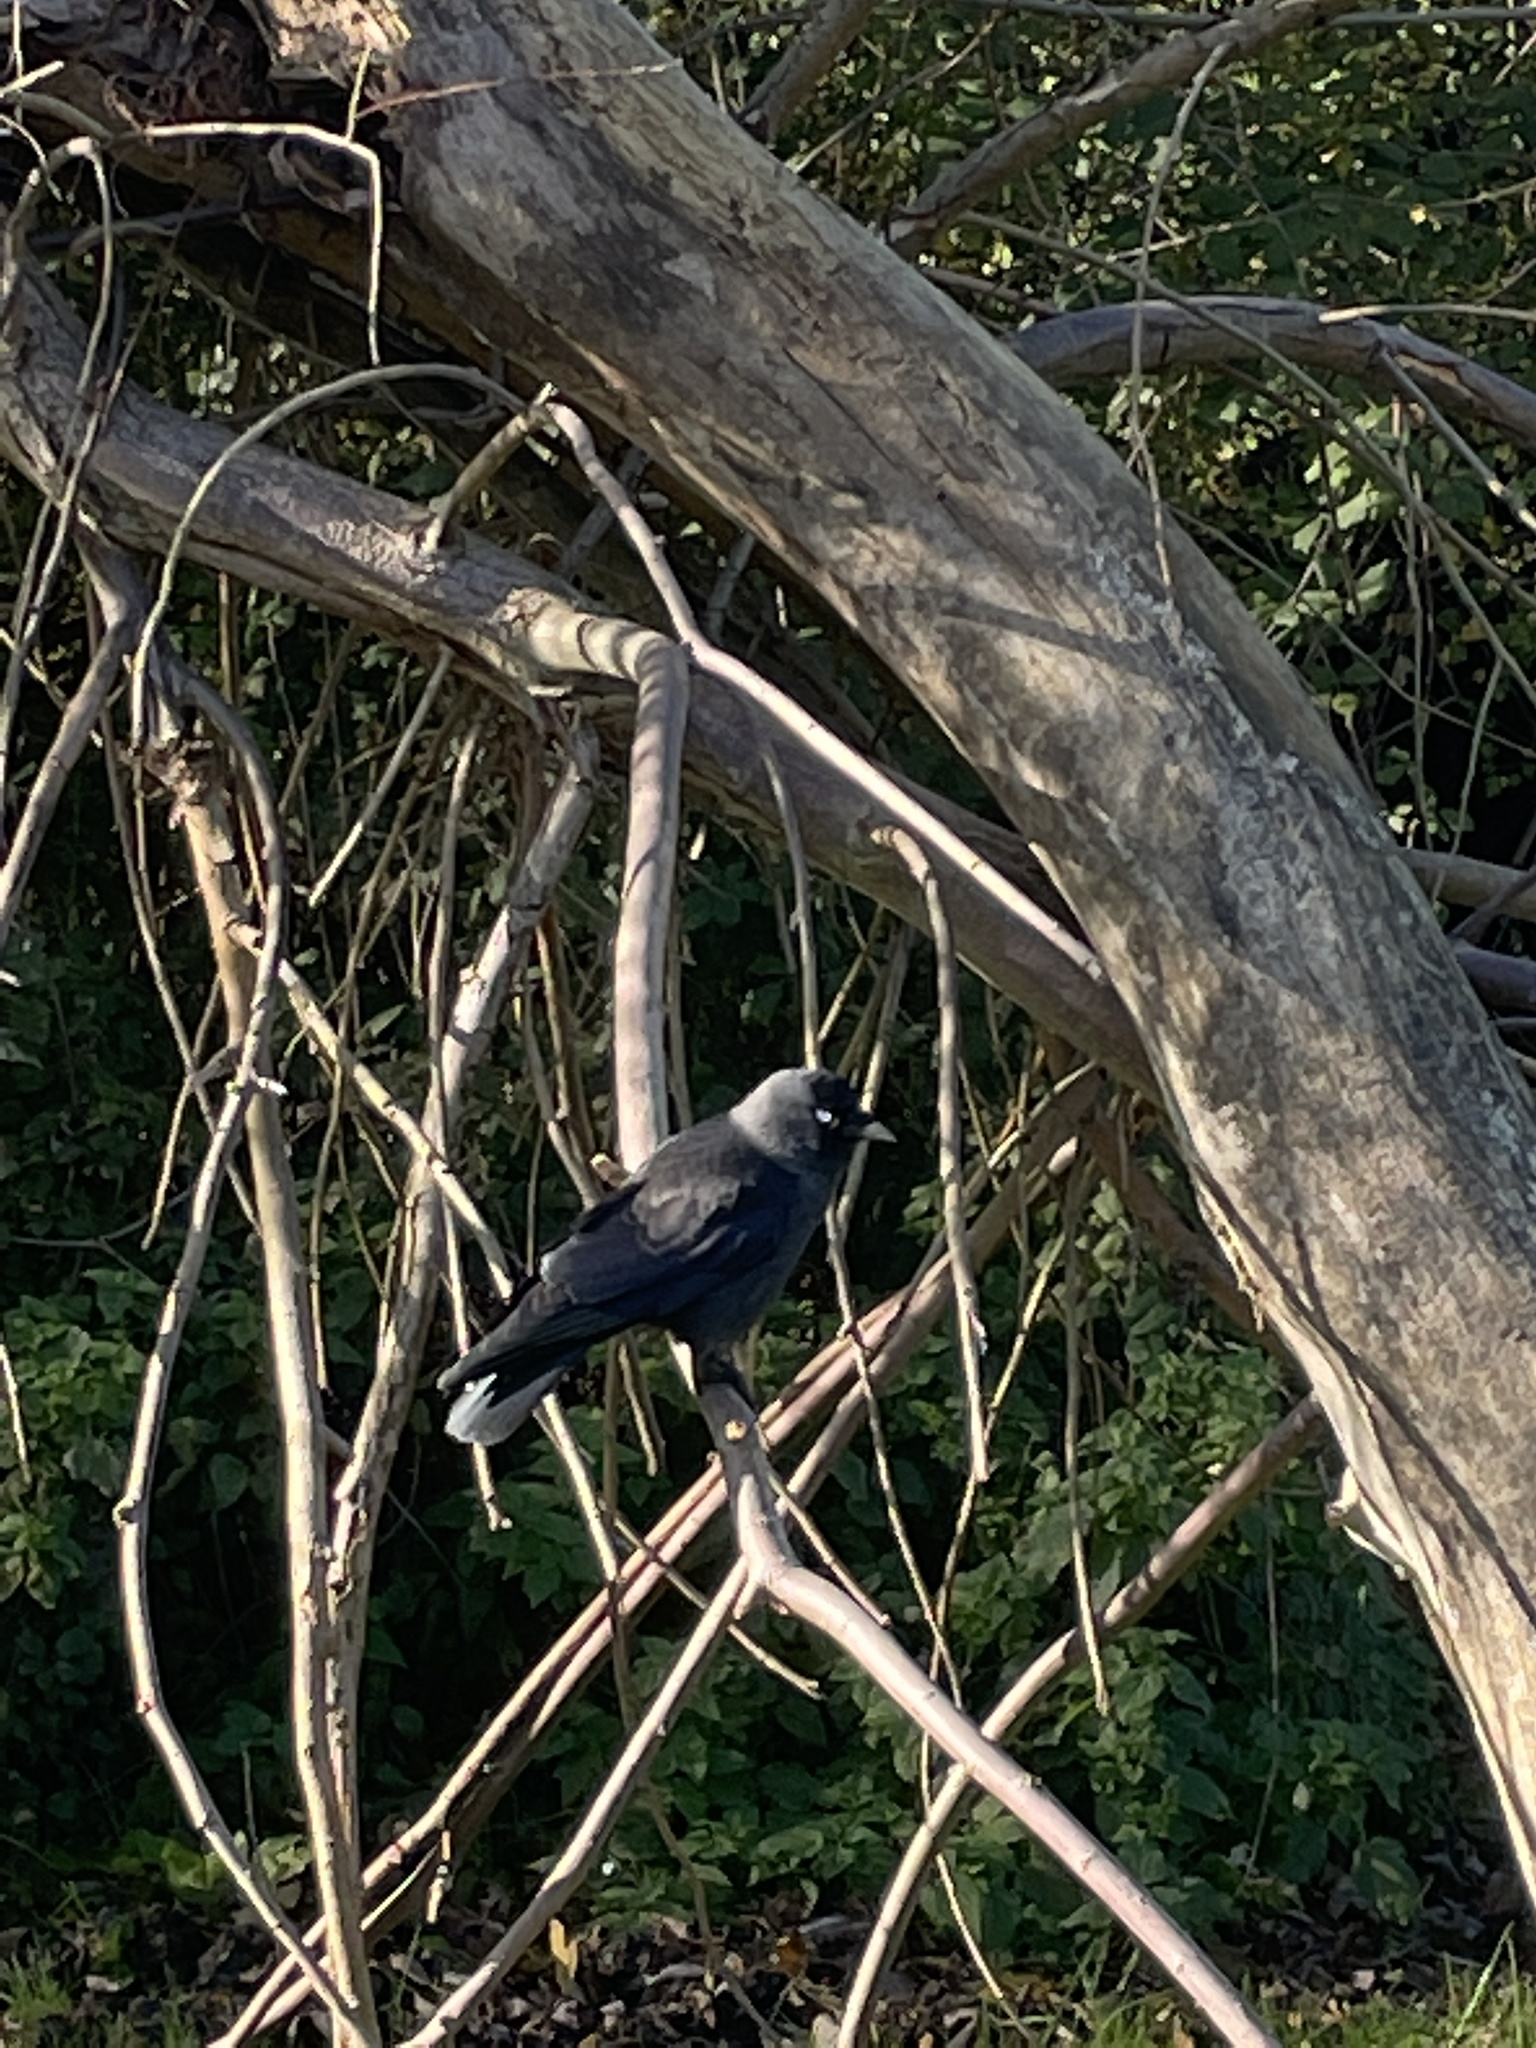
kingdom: Animalia
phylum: Chordata
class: Aves
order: Passeriformes
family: Corvidae
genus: Coloeus
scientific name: Coloeus monedula
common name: Western jackdaw
